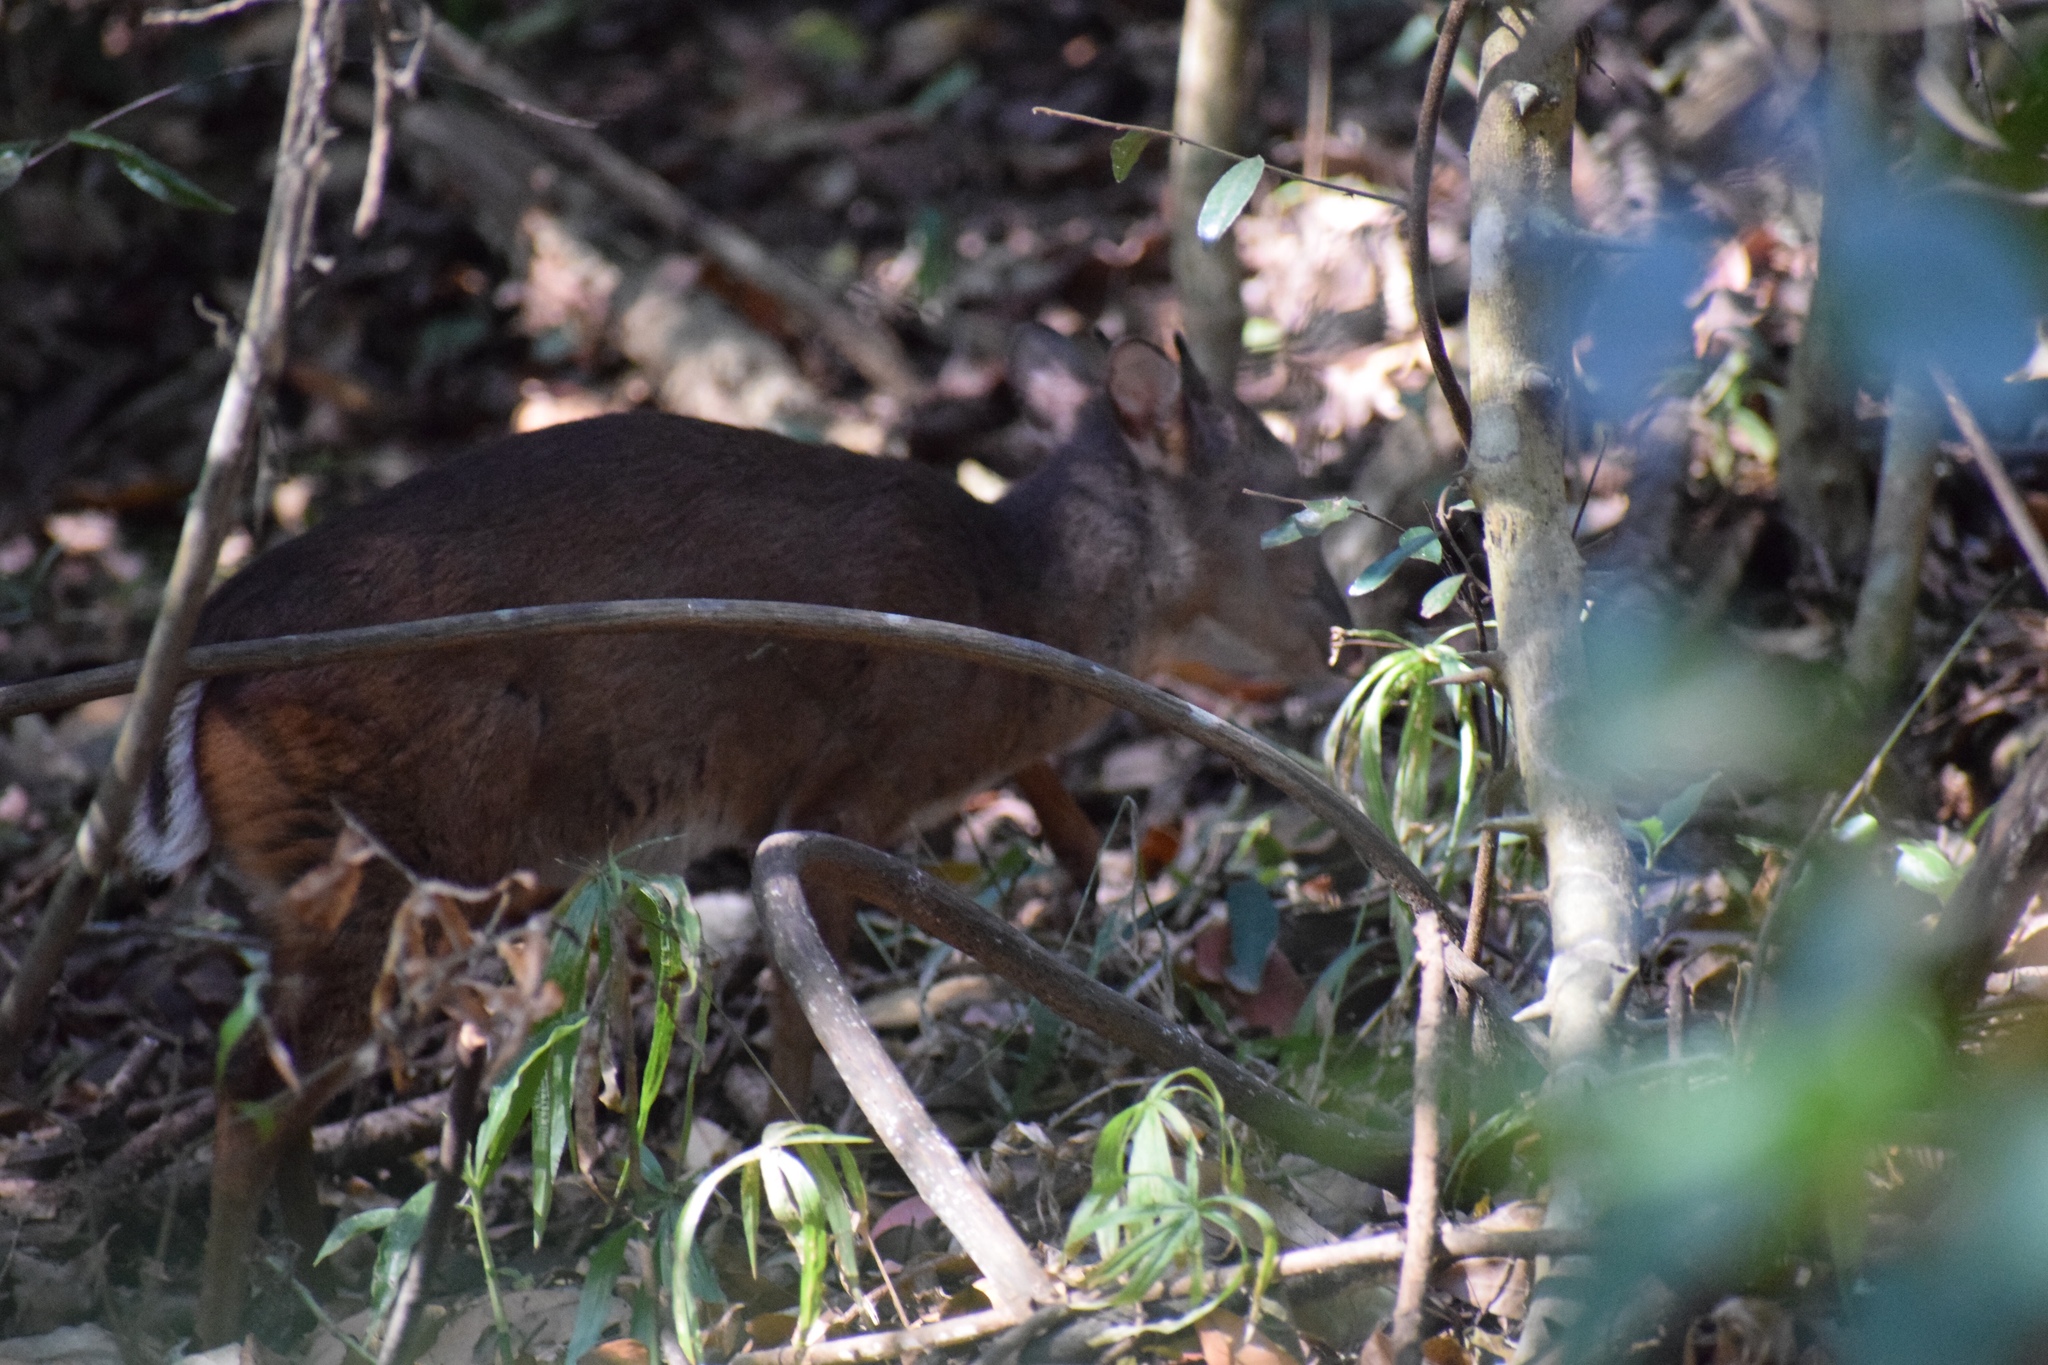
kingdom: Animalia
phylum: Chordata
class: Mammalia
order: Artiodactyla
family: Bovidae
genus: Philantomba
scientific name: Philantomba monticola
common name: Blue duiker
